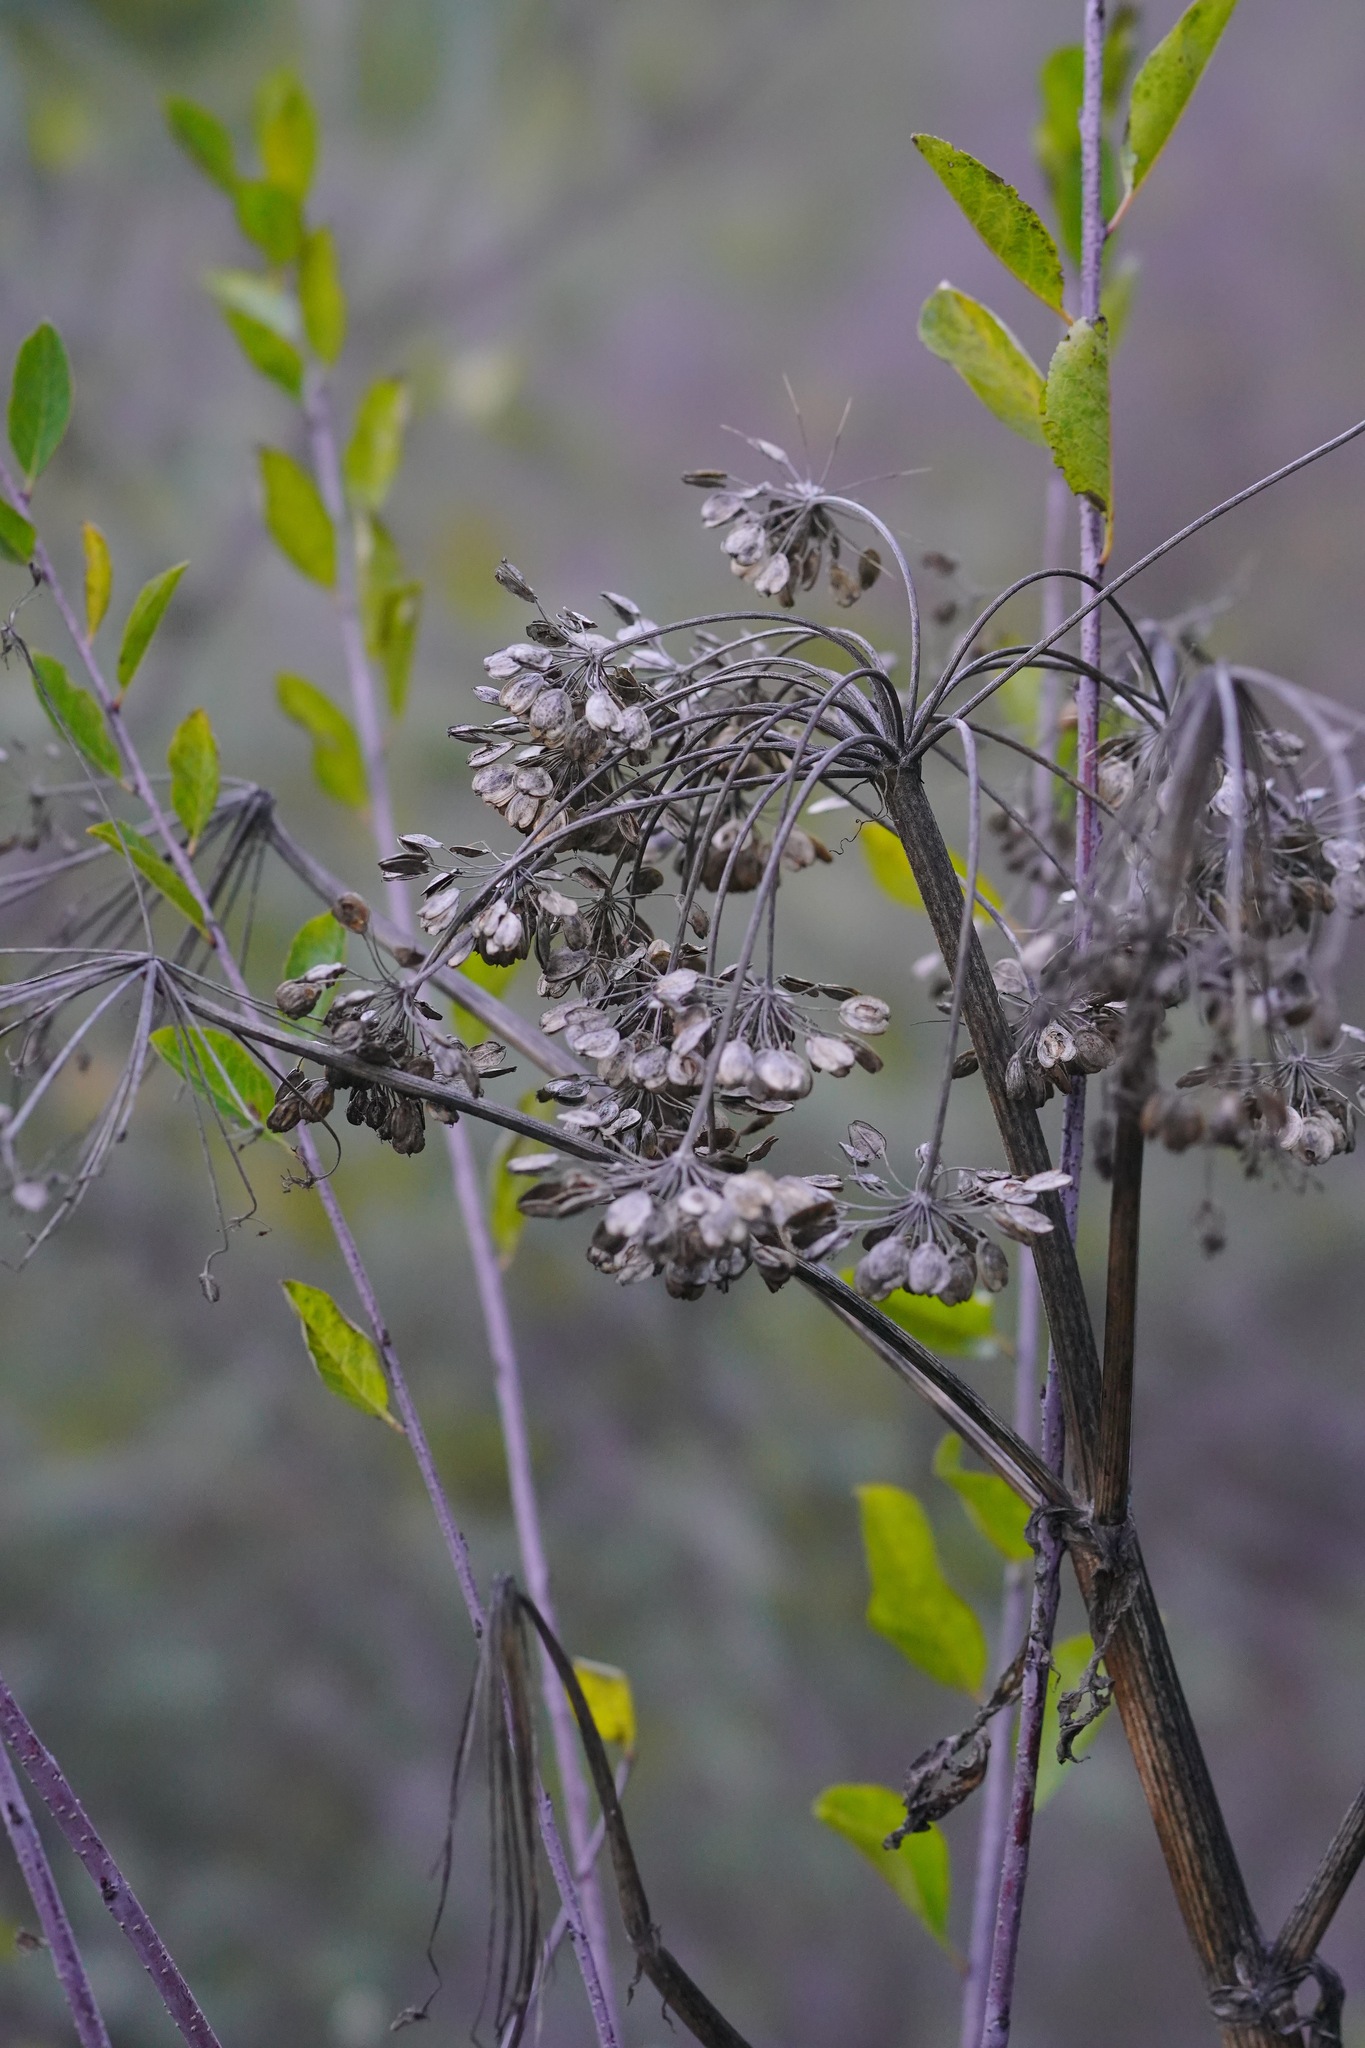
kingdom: Plantae
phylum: Tracheophyta
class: Magnoliopsida
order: Apiales
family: Apiaceae
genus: Heracleum
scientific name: Heracleum maximum
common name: American cow parsnip
